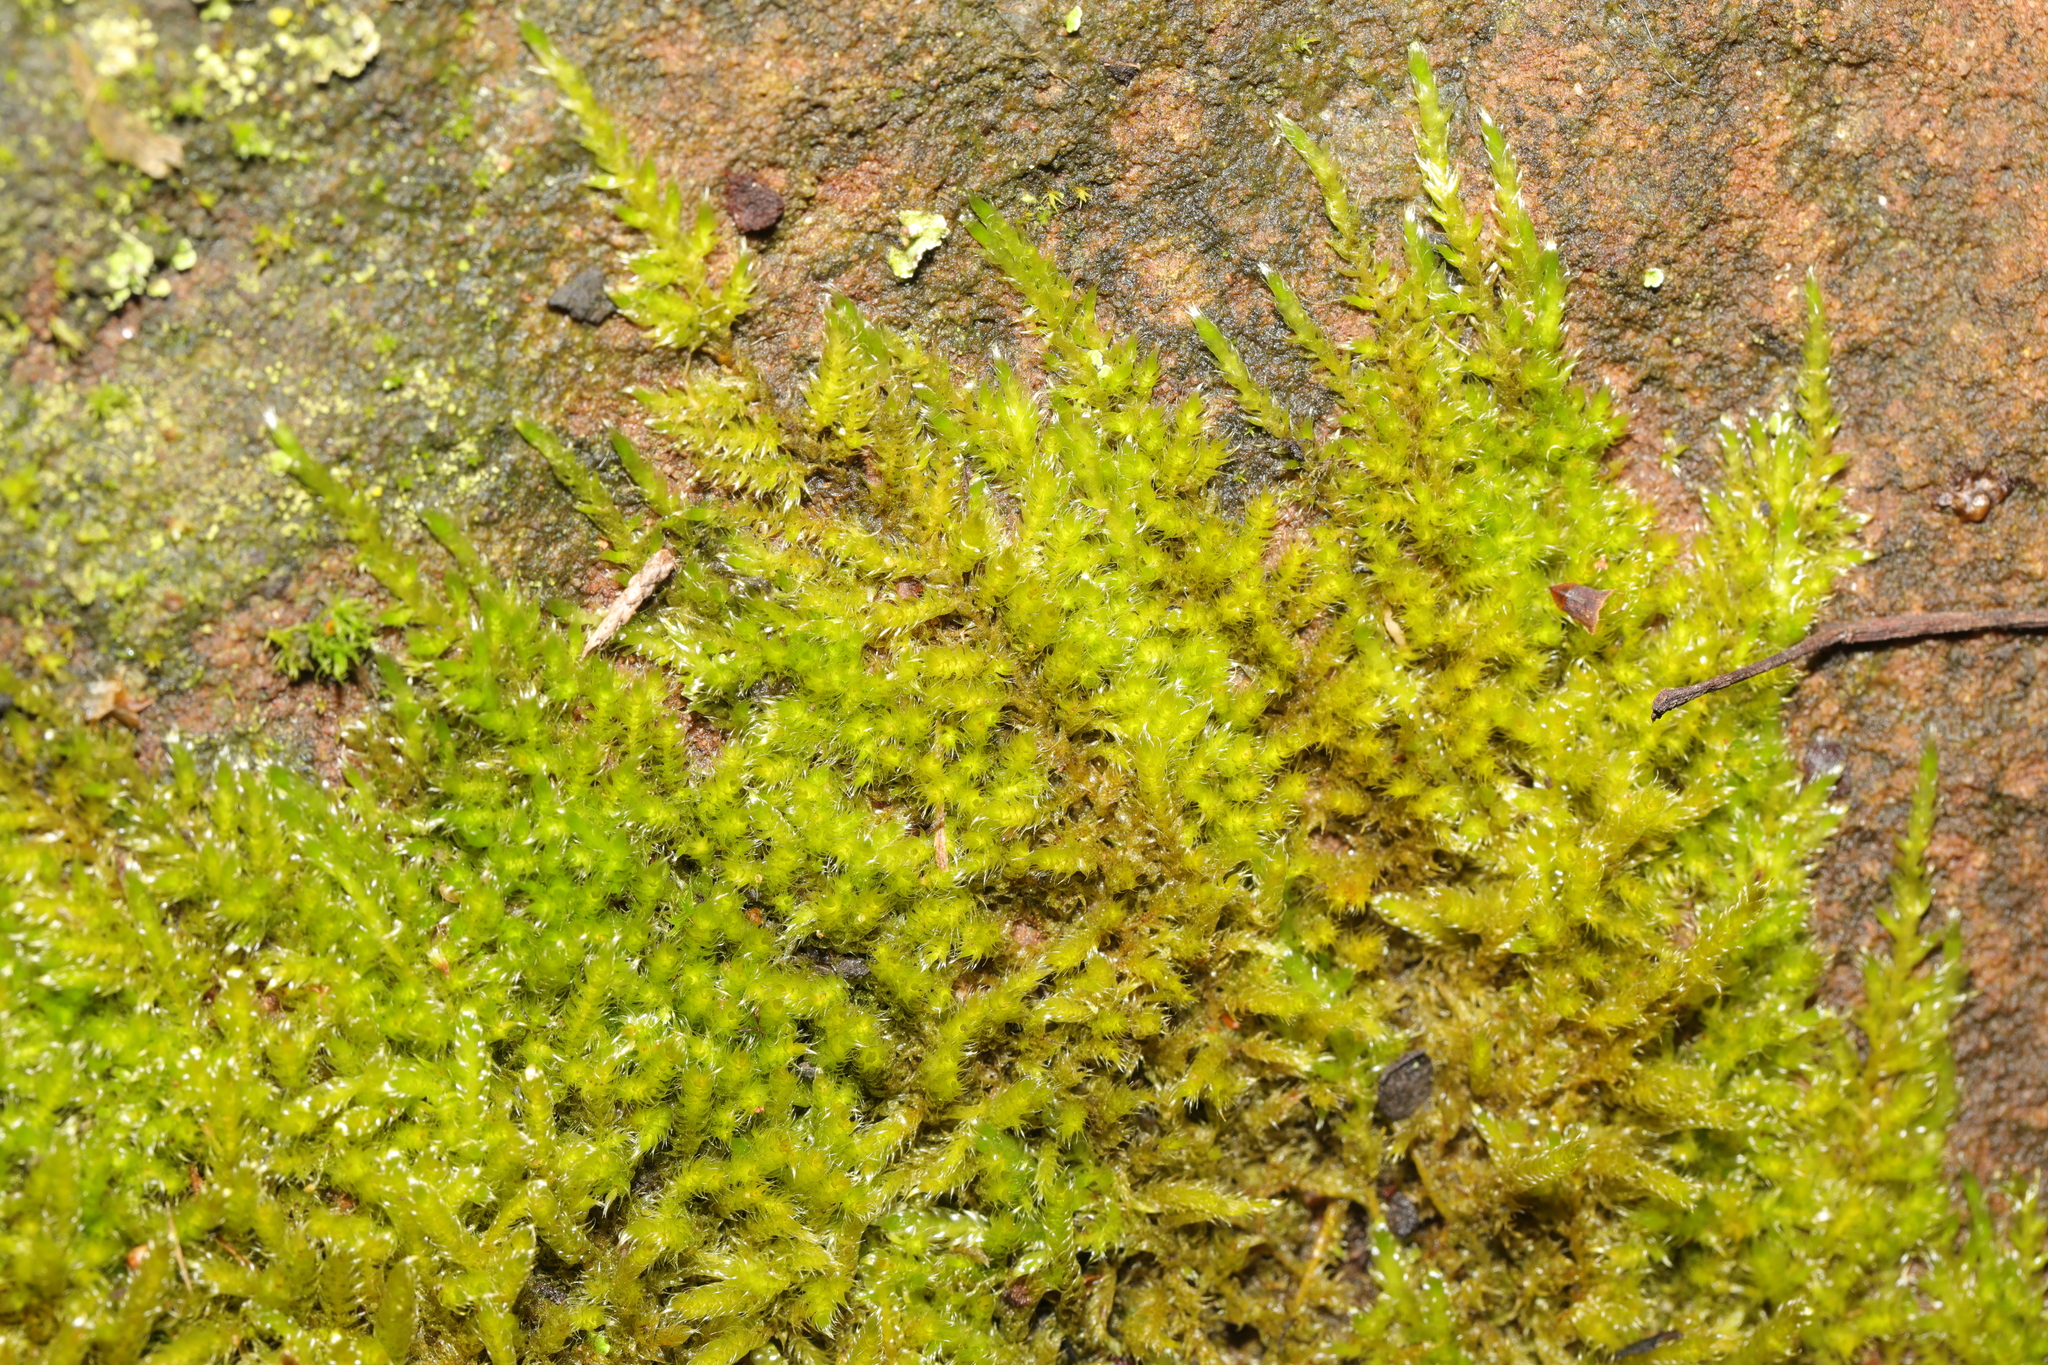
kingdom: Plantae
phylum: Bryophyta
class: Bryopsida
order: Hypnales
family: Brachytheciaceae
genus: Homalothecium
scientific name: Homalothecium sericeum
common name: Silky wall feather-moss
